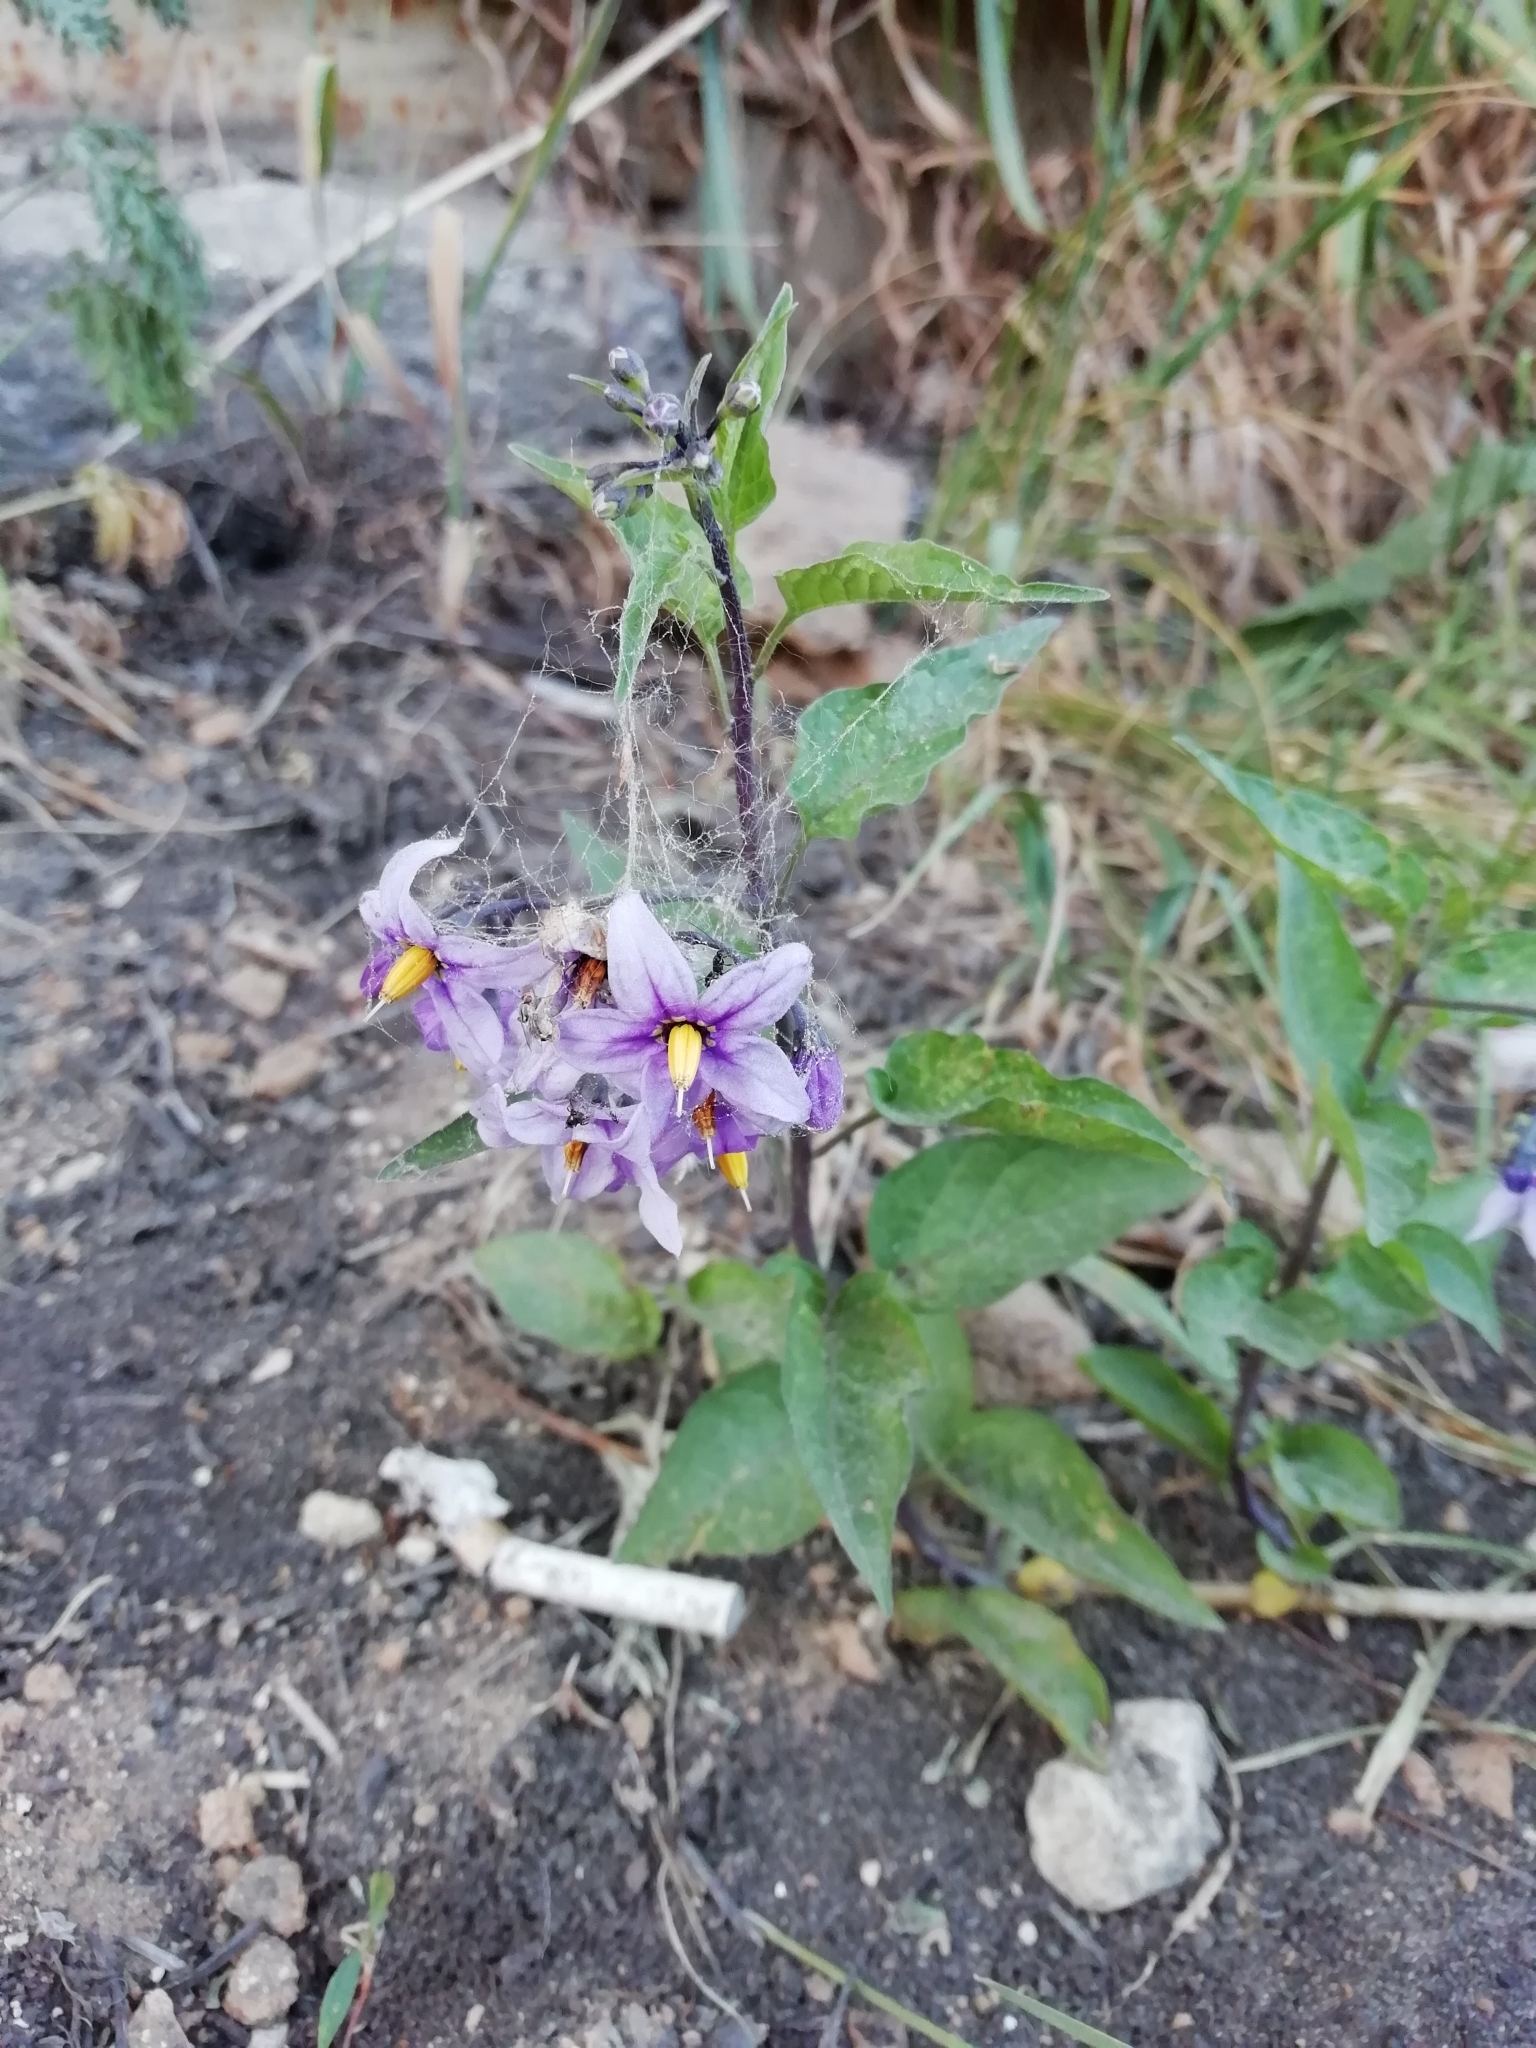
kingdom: Plantae
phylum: Tracheophyta
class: Magnoliopsida
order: Solanales
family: Solanaceae
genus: Solanum
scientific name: Solanum dulcamara
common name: Climbing nightshade
